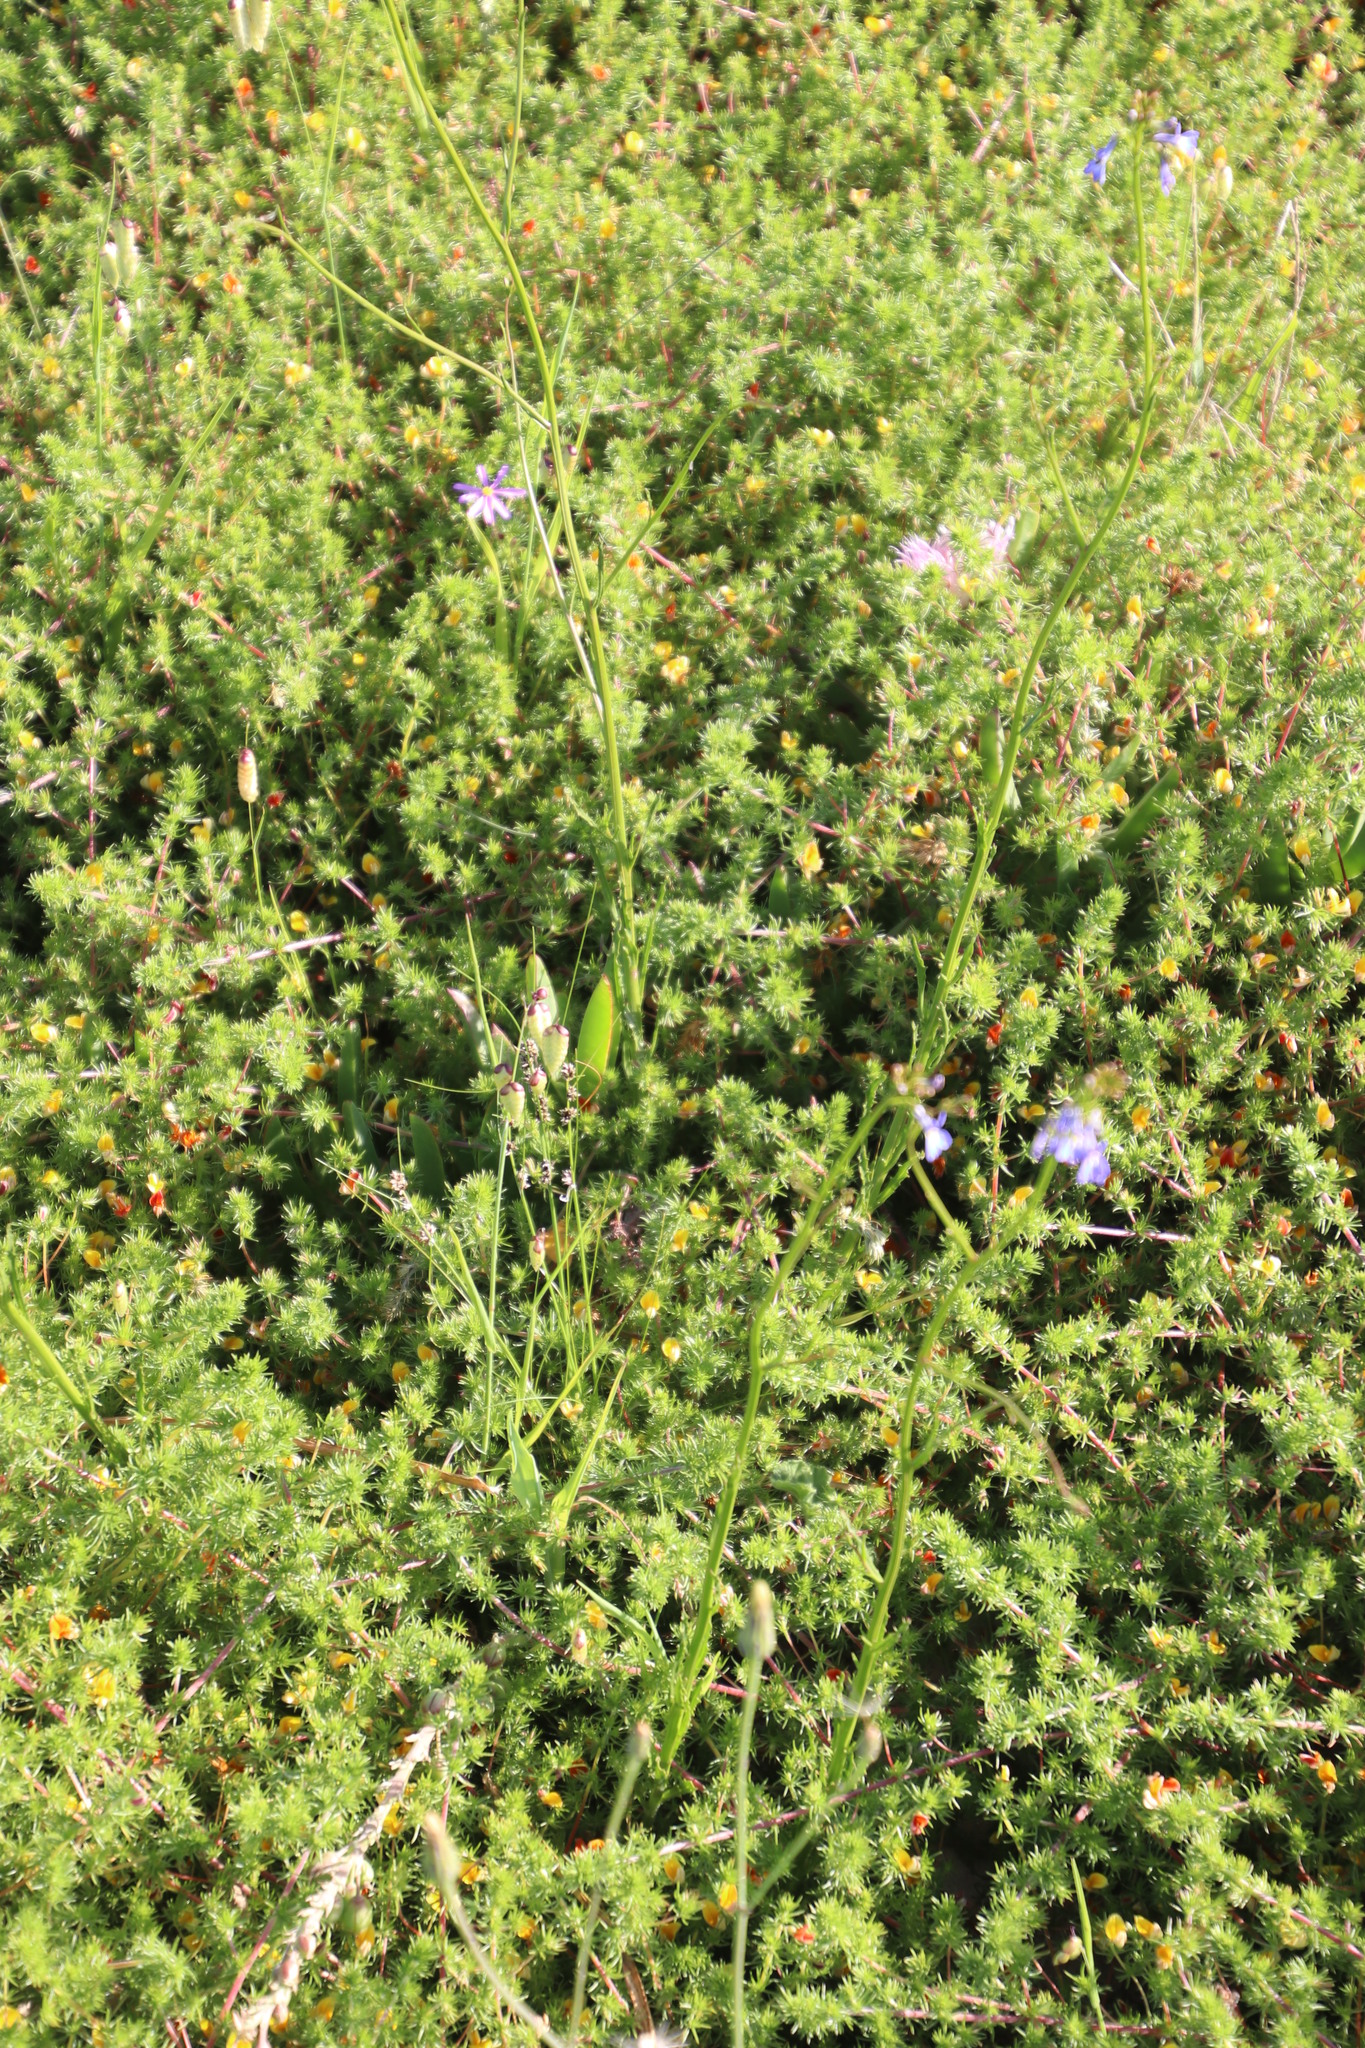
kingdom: Plantae
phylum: Tracheophyta
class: Magnoliopsida
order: Asterales
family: Campanulaceae
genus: Lobelia
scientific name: Lobelia comosa
